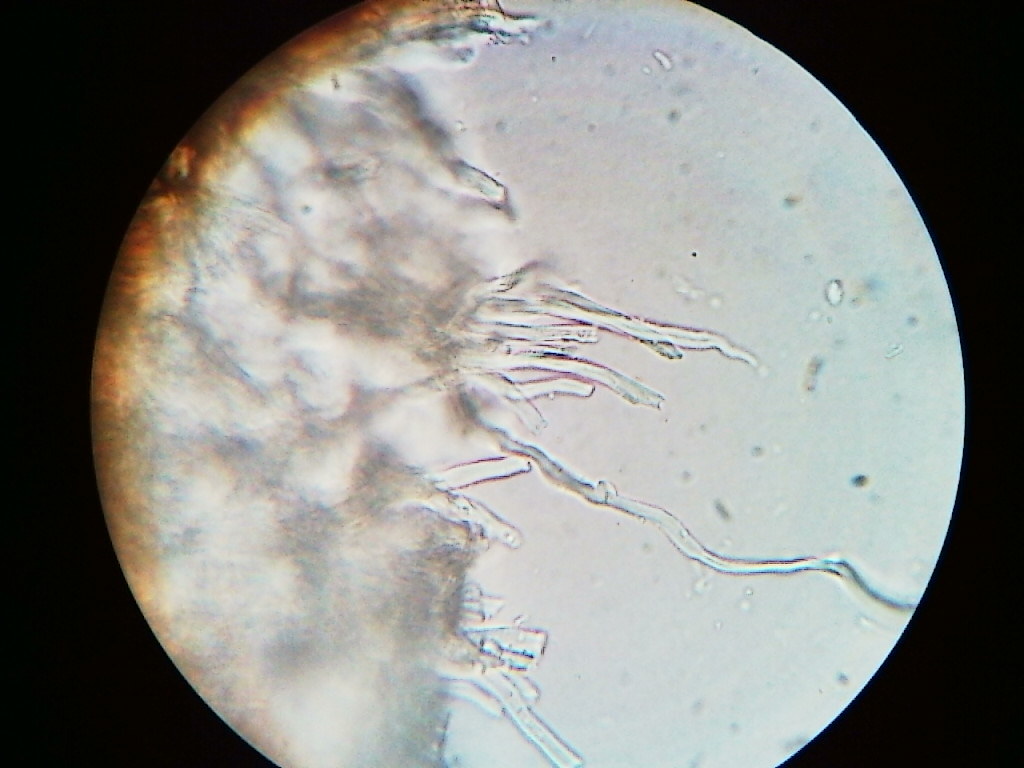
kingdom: Fungi
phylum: Basidiomycota
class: Agaricomycetes
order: Hymenochaetales
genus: Trichaptum
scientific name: Trichaptum subchartaceum
